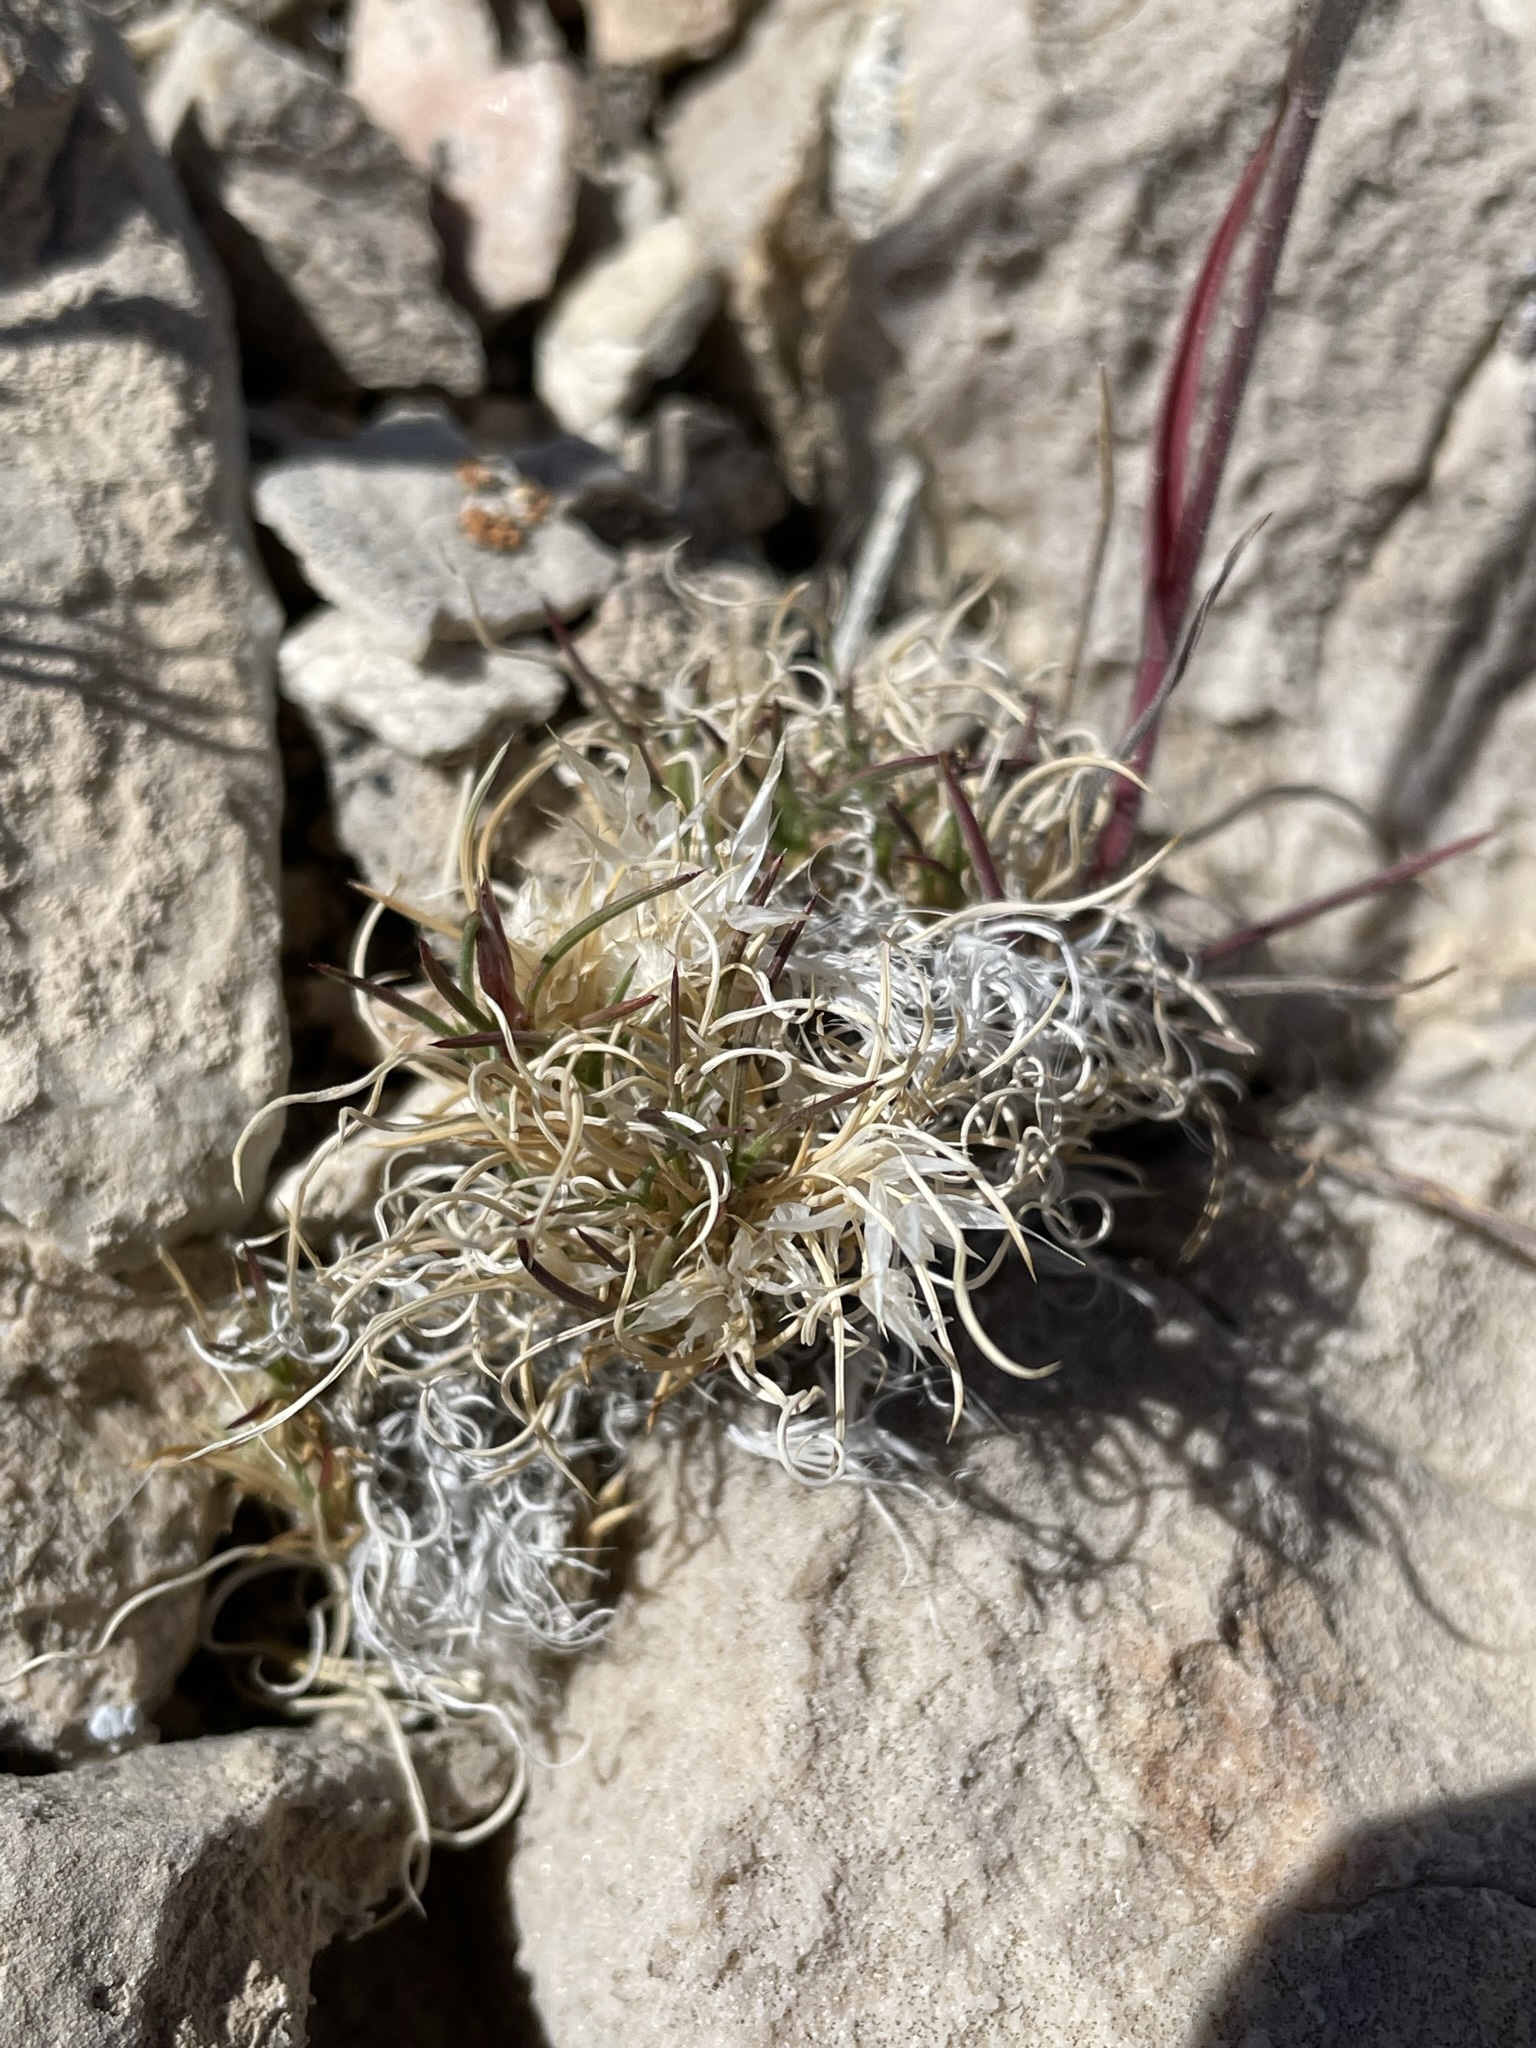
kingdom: Plantae
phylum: Tracheophyta
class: Liliopsida
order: Poales
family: Poaceae
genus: Dasyochloa
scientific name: Dasyochloa pulchella
